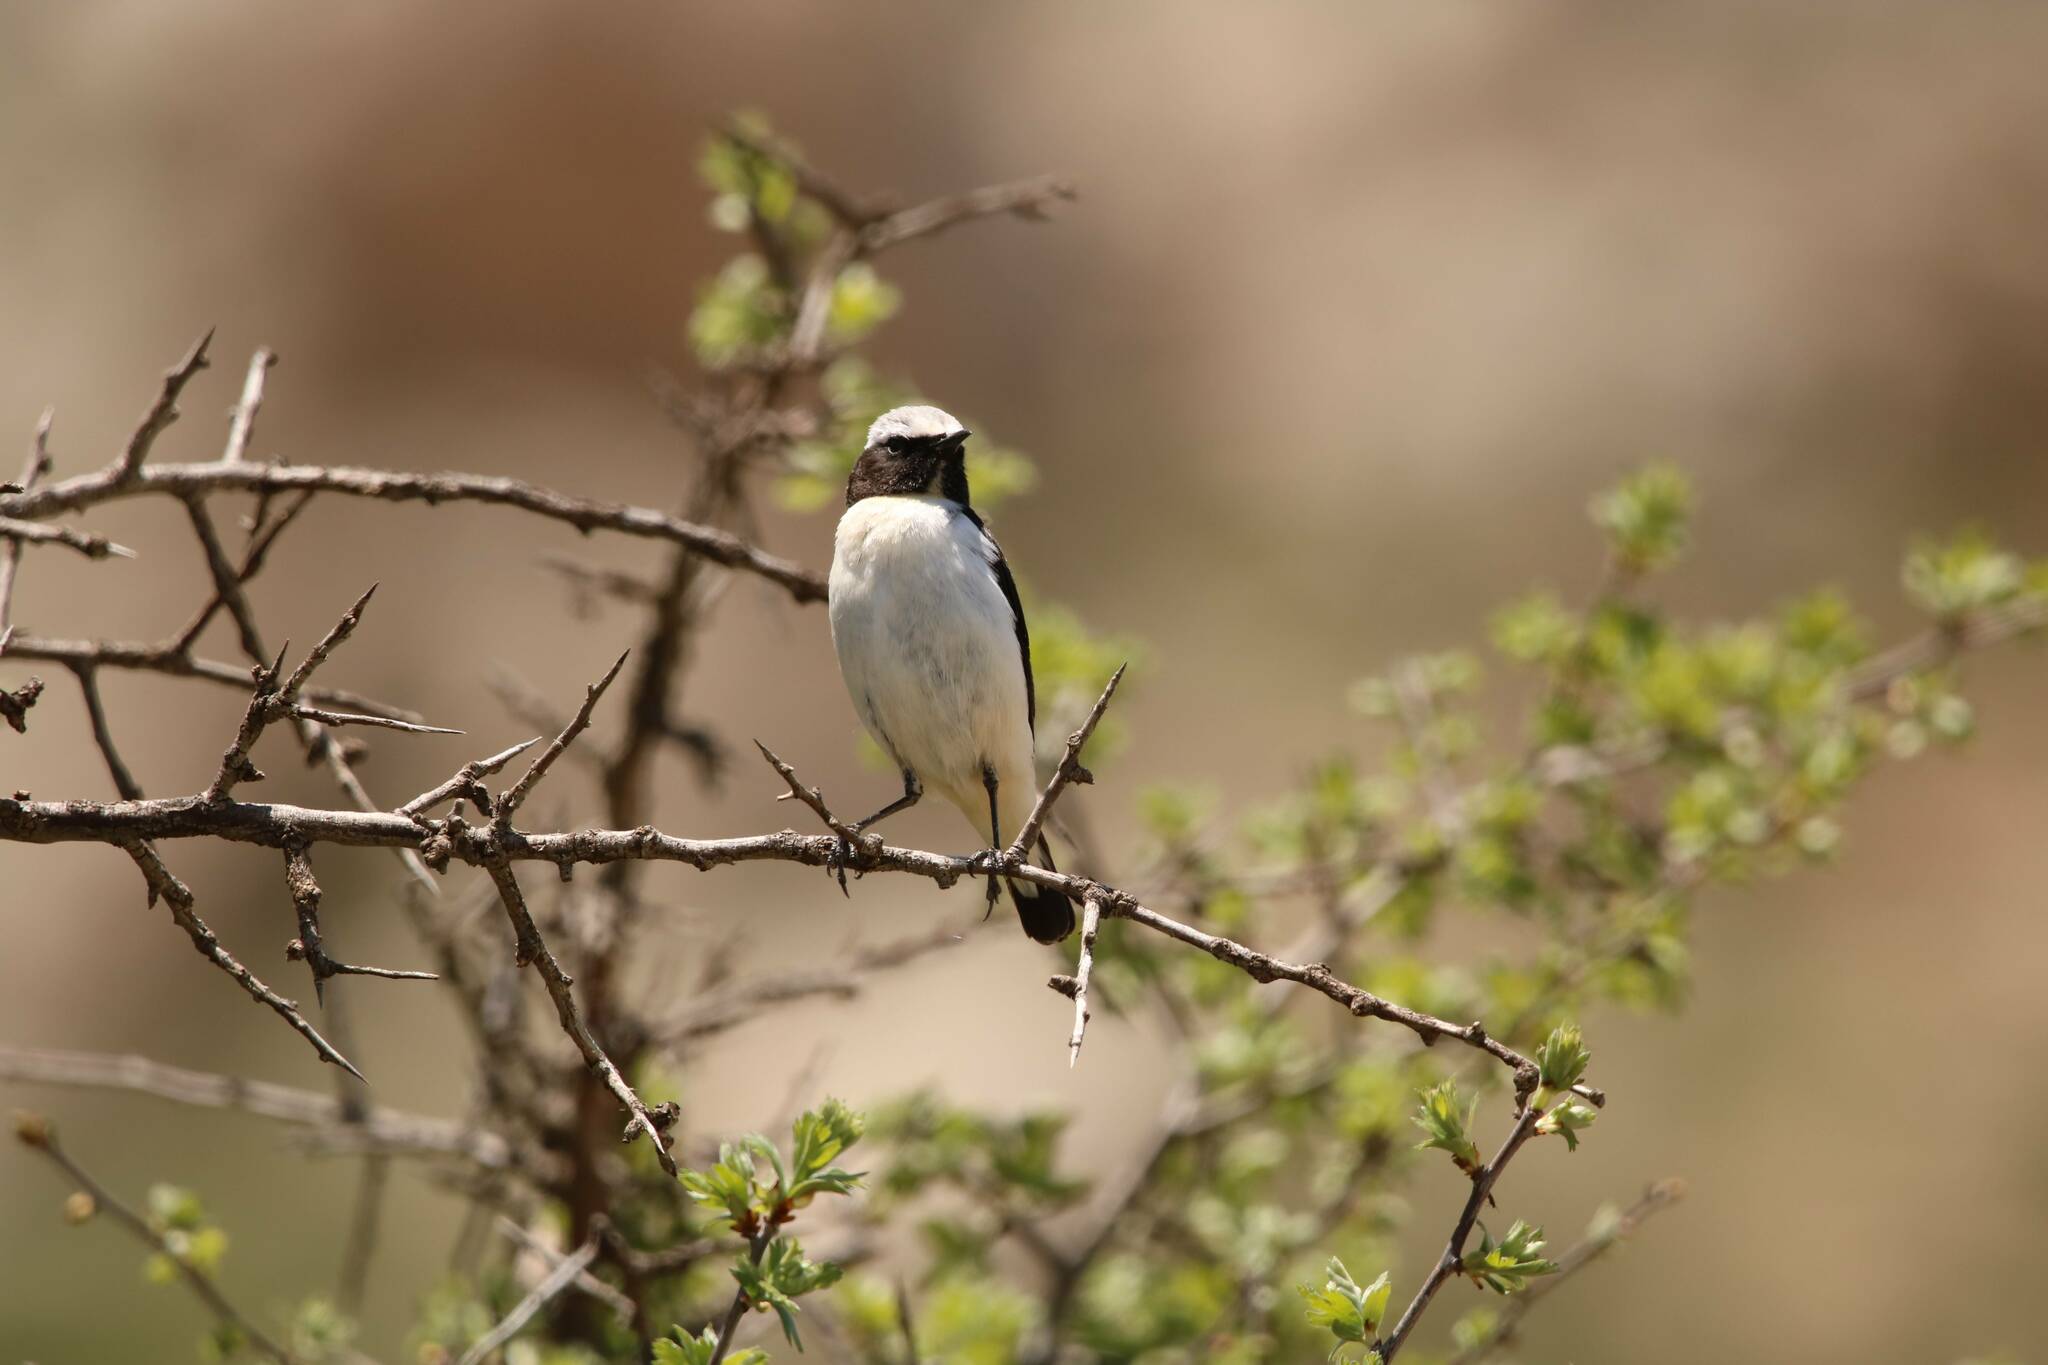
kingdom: Animalia
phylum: Chordata
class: Aves
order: Passeriformes
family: Muscicapidae
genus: Oenanthe
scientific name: Oenanthe oenanthe
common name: Northern wheatear
